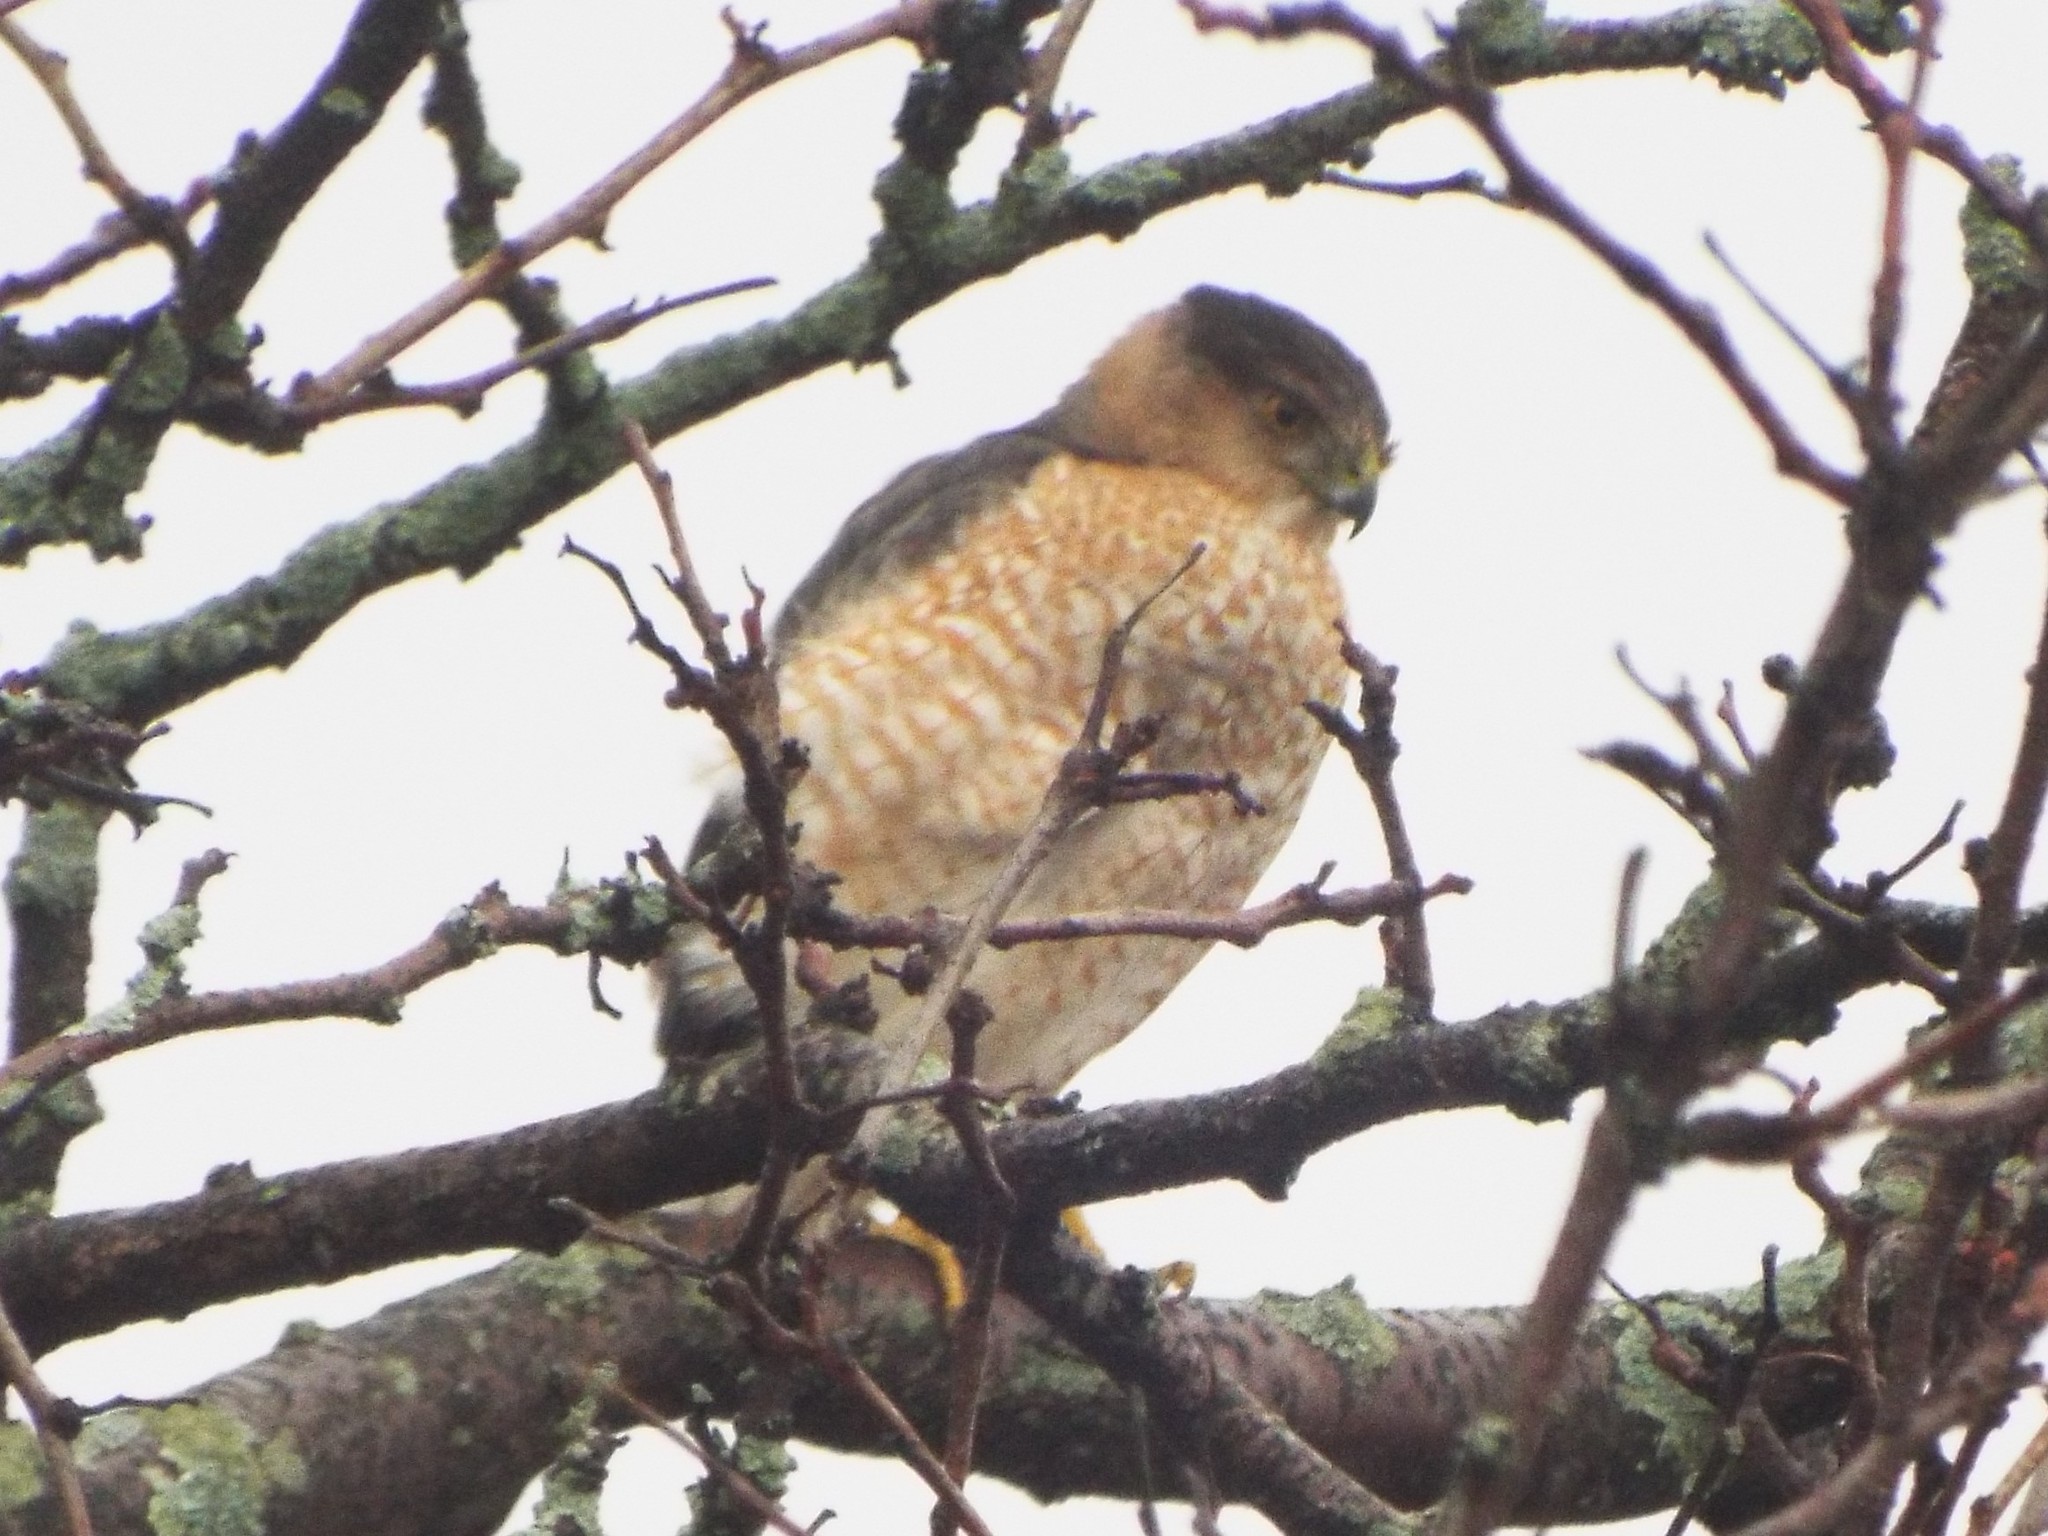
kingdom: Animalia
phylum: Chordata
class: Aves
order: Accipitriformes
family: Accipitridae
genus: Accipiter
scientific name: Accipiter cooperii
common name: Cooper's hawk
